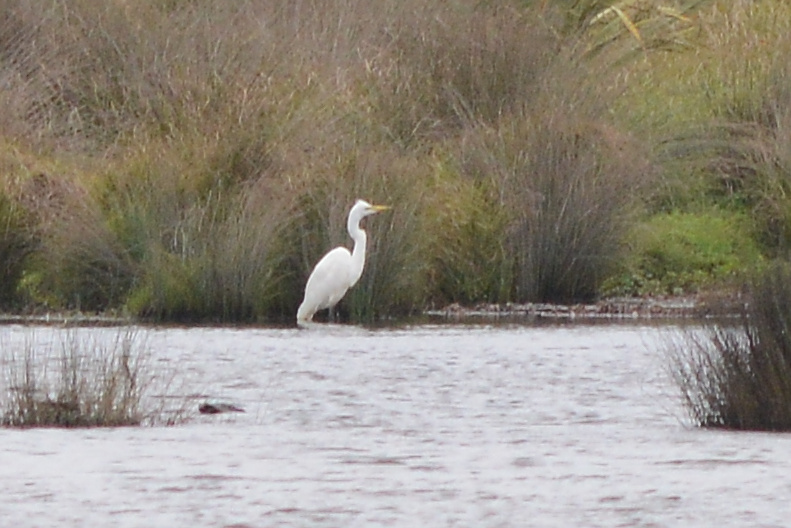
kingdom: Animalia
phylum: Chordata
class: Aves
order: Pelecaniformes
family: Ardeidae
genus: Ardea
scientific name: Ardea modesta
